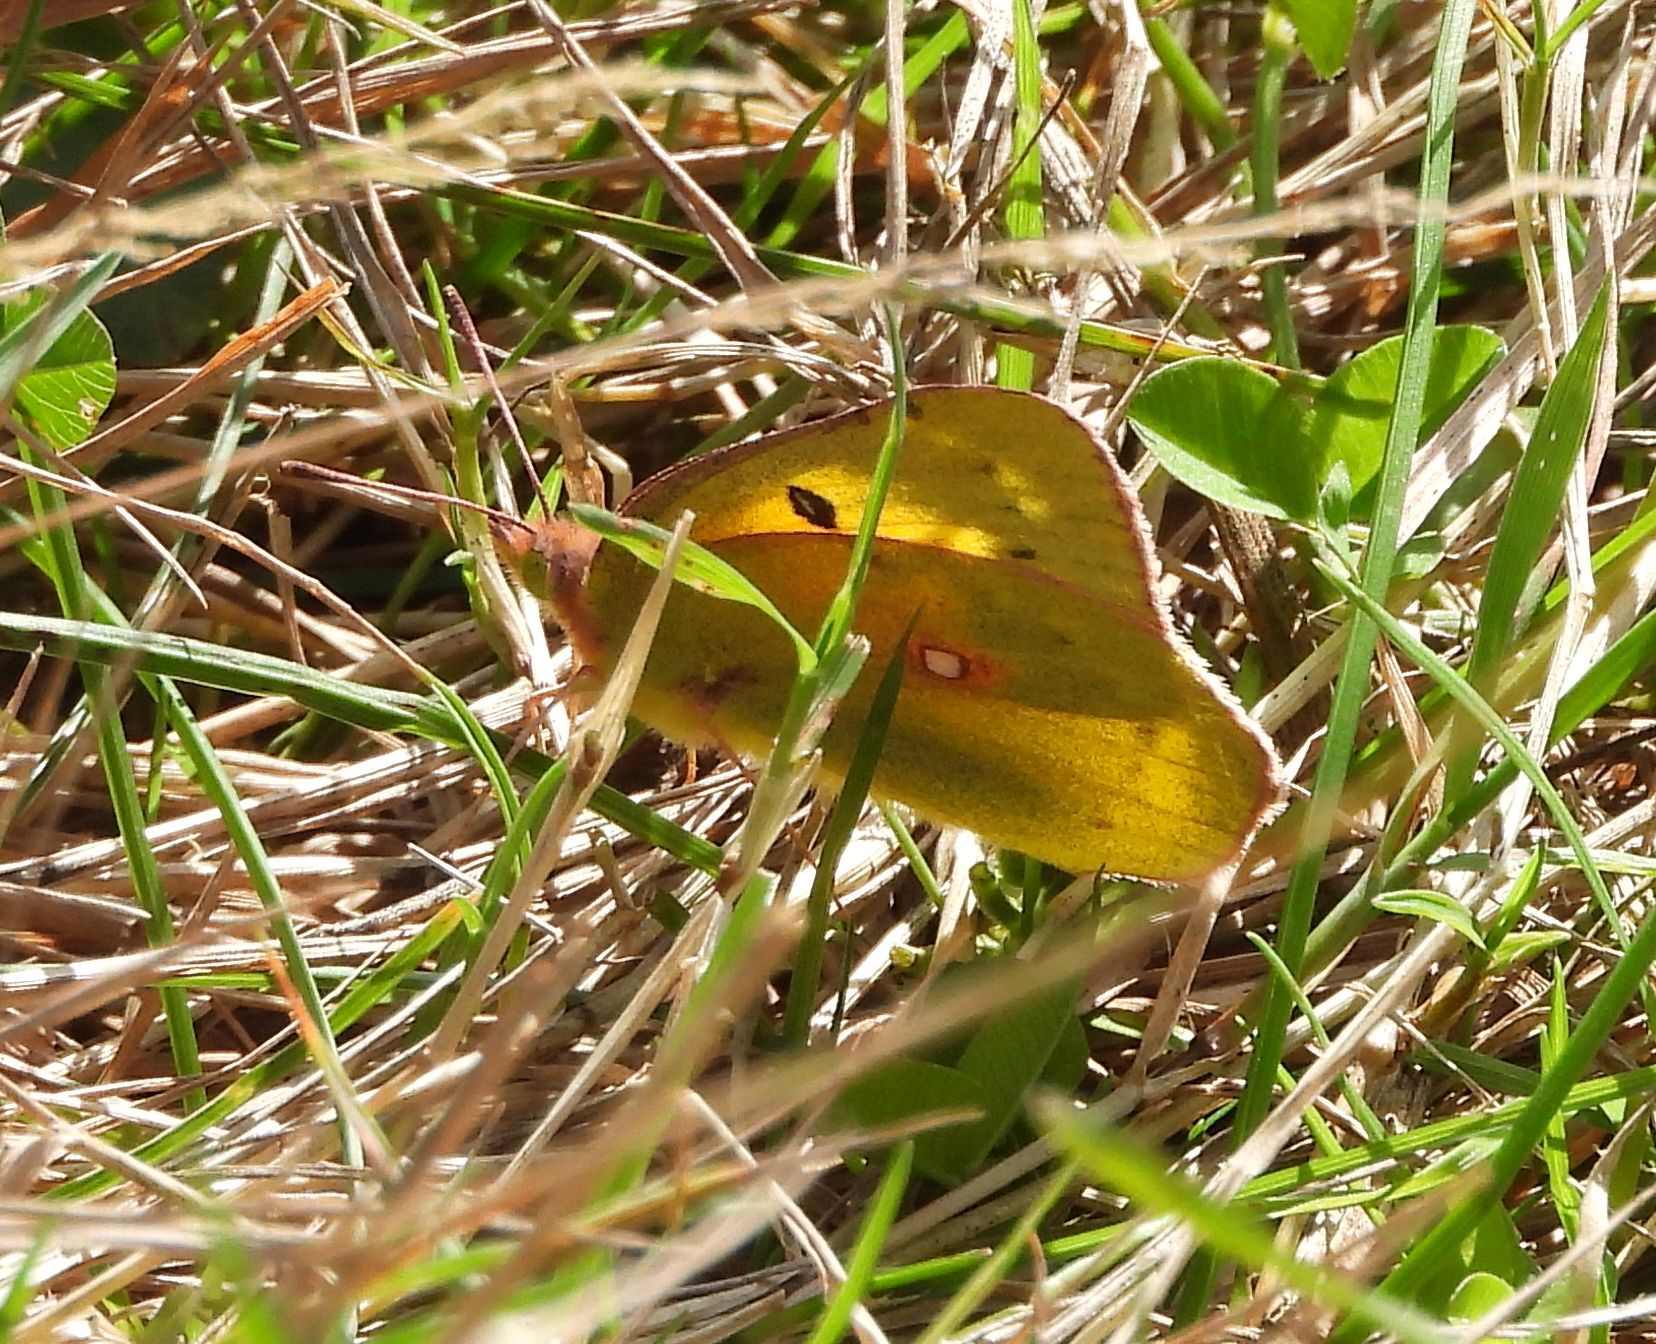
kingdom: Animalia
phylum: Arthropoda
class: Insecta
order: Lepidoptera
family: Pieridae
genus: Colias
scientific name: Colias eurytheme
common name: Alfalfa butterfly
